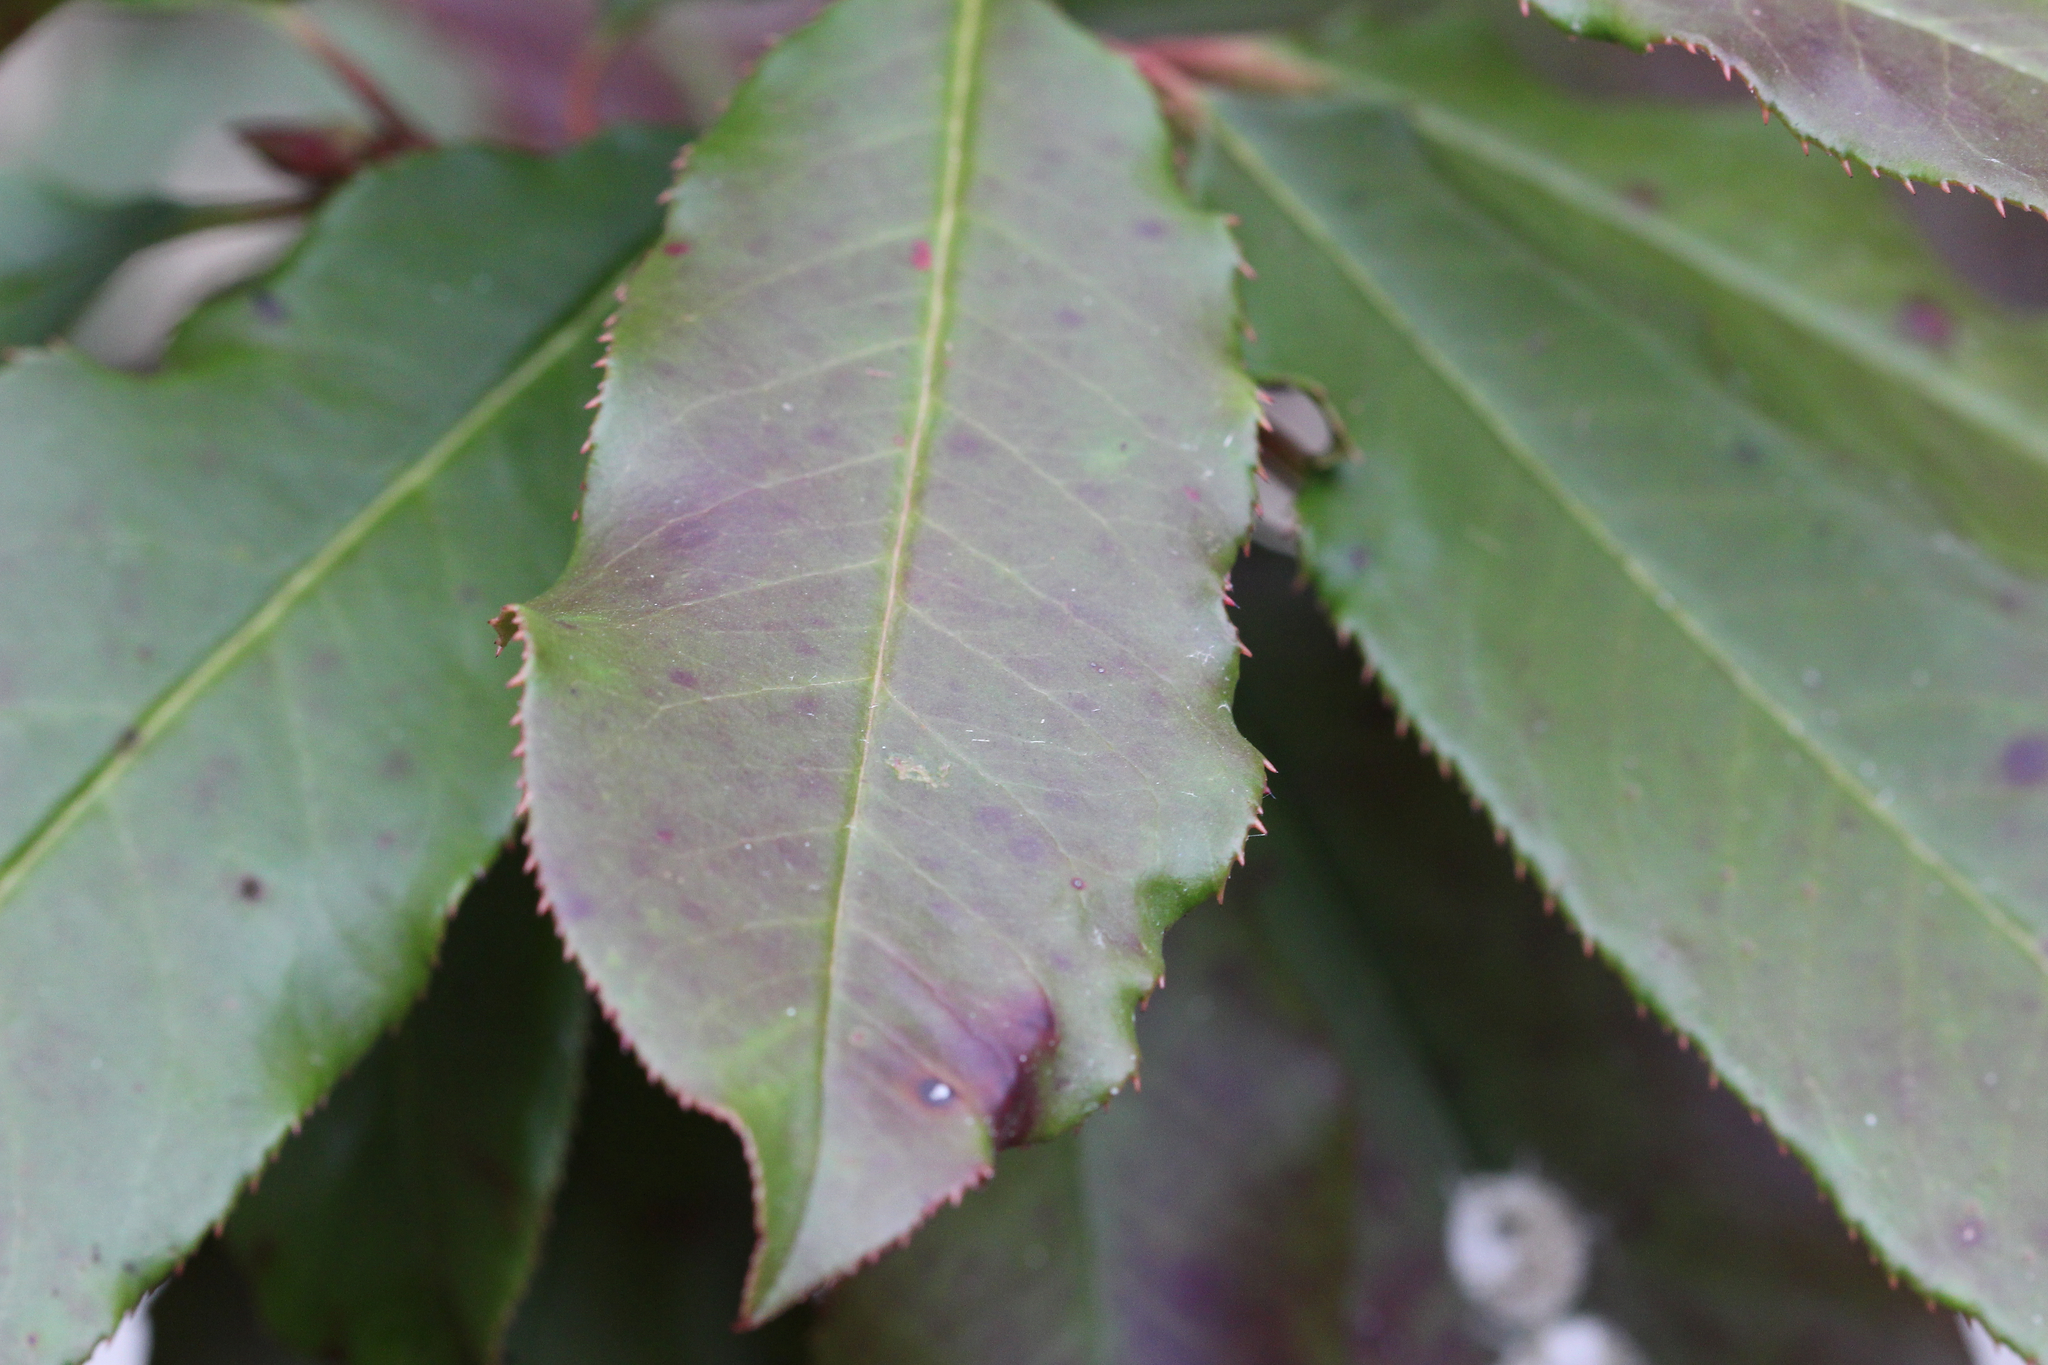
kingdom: Plantae
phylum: Tracheophyta
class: Magnoliopsida
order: Rosales
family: Rosaceae
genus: Photinia
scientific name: Photinia serratifolia
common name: Taiwanese photinia
